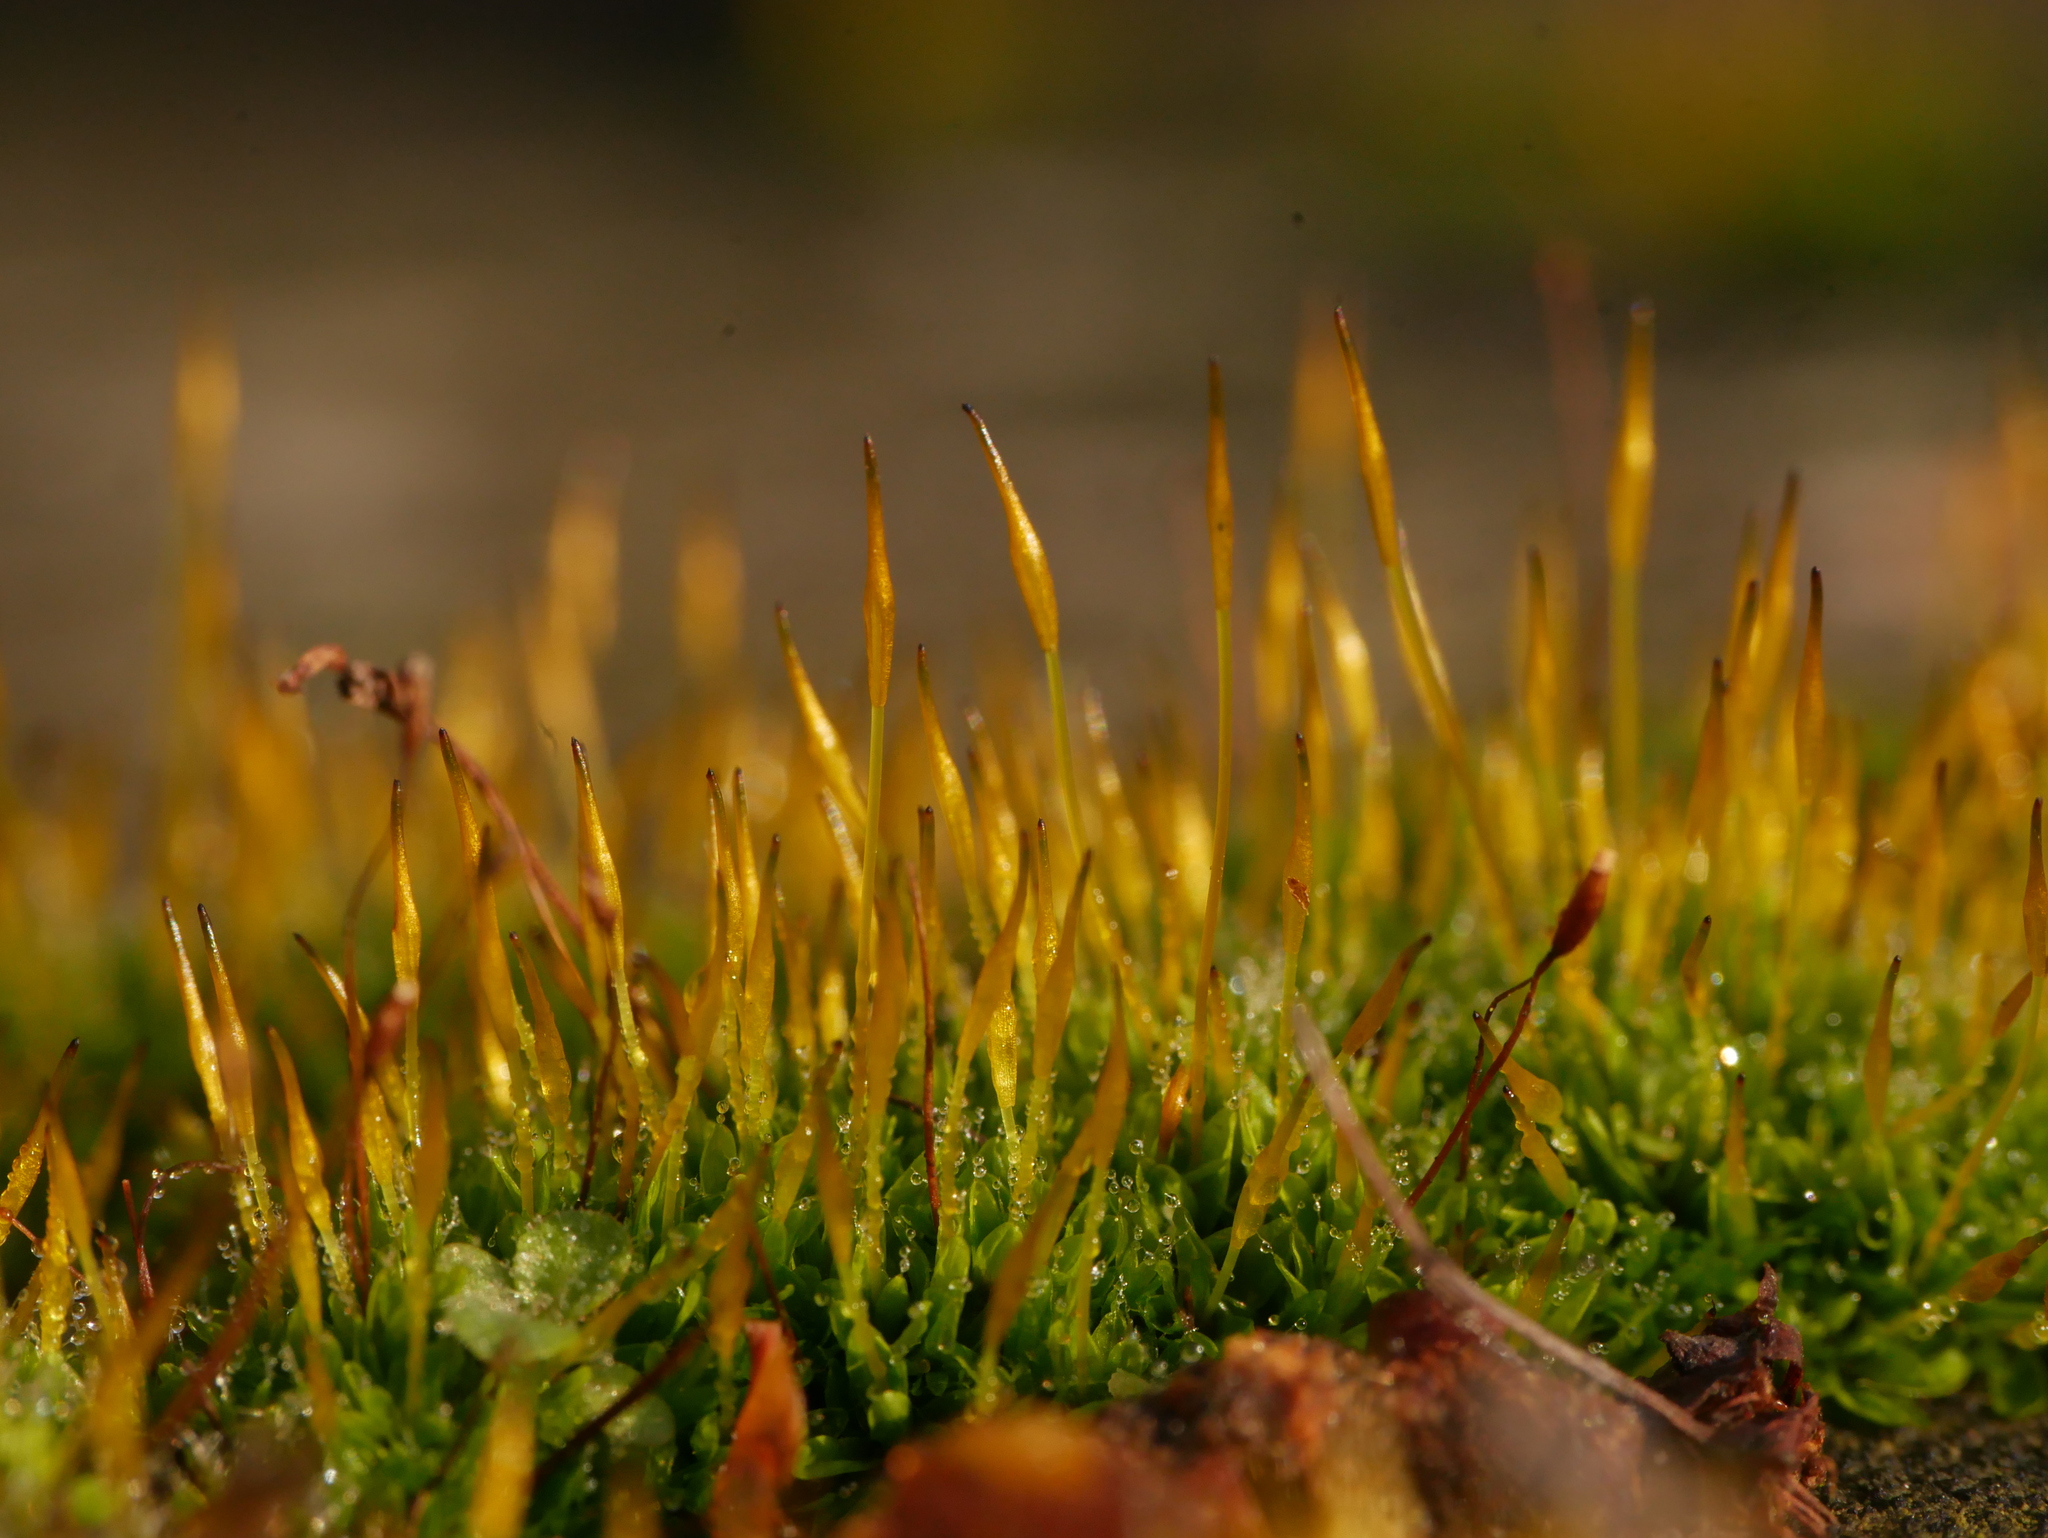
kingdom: Plantae
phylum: Bryophyta
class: Bryopsida
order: Pottiales
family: Pottiaceae
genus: Tortula
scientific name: Tortula muralis
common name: Wall screw-moss
